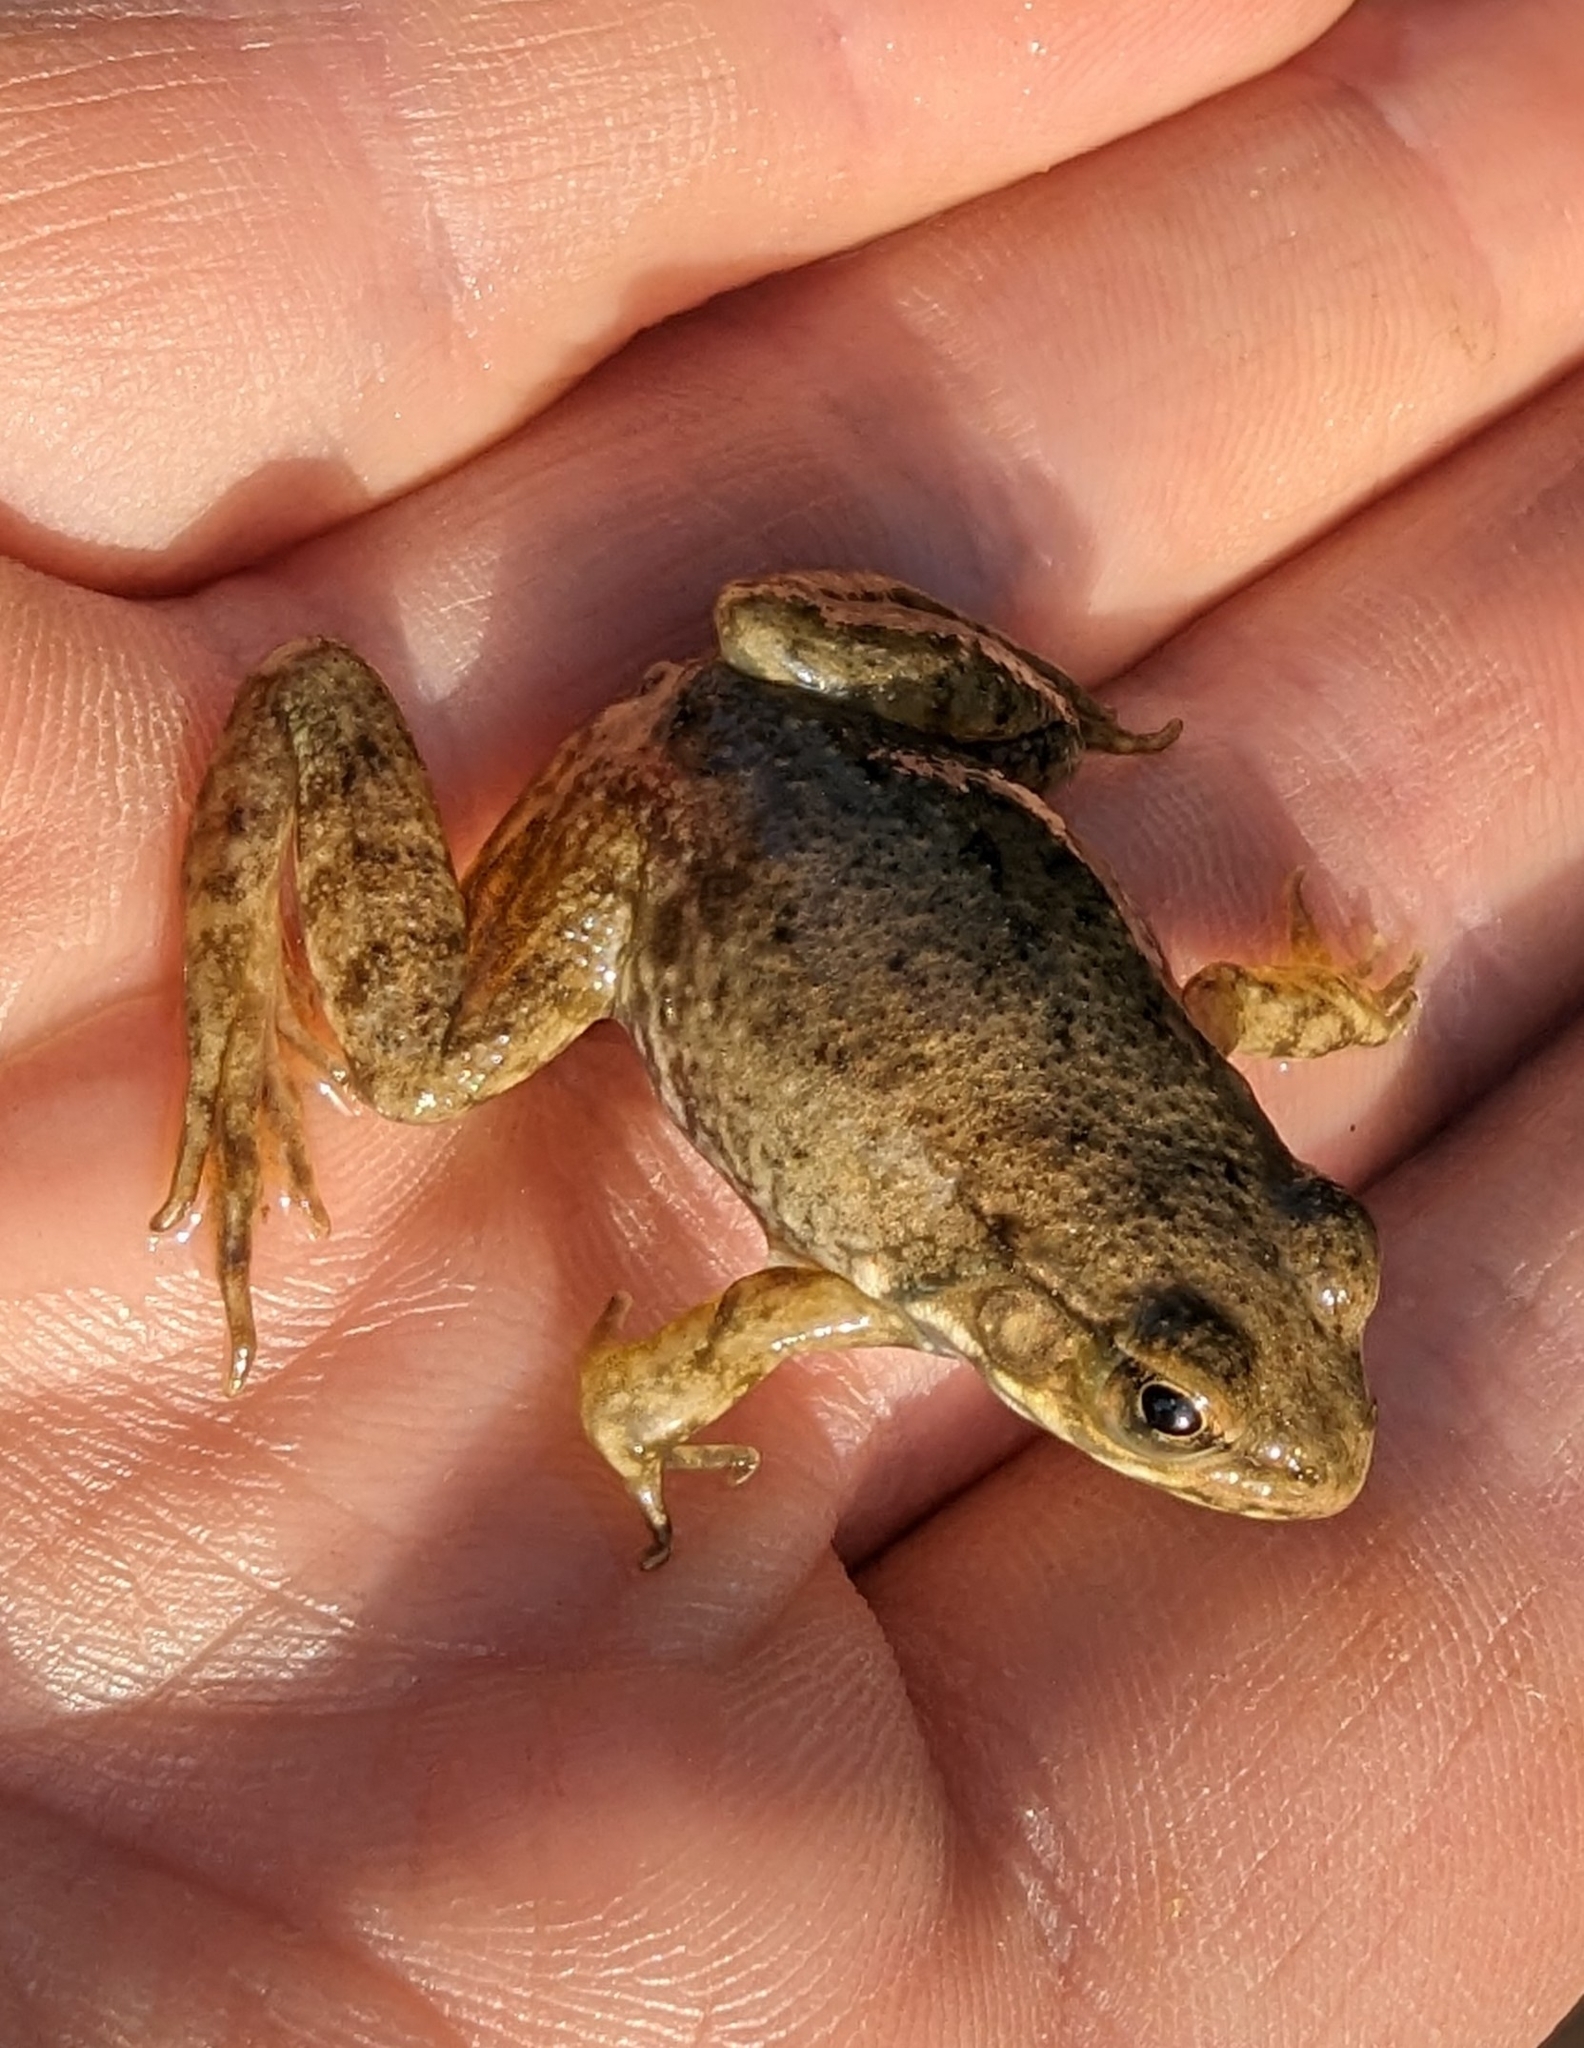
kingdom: Animalia
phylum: Chordata
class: Amphibia
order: Anura
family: Ranidae
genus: Lithobates
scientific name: Lithobates clamitans
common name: Green frog
